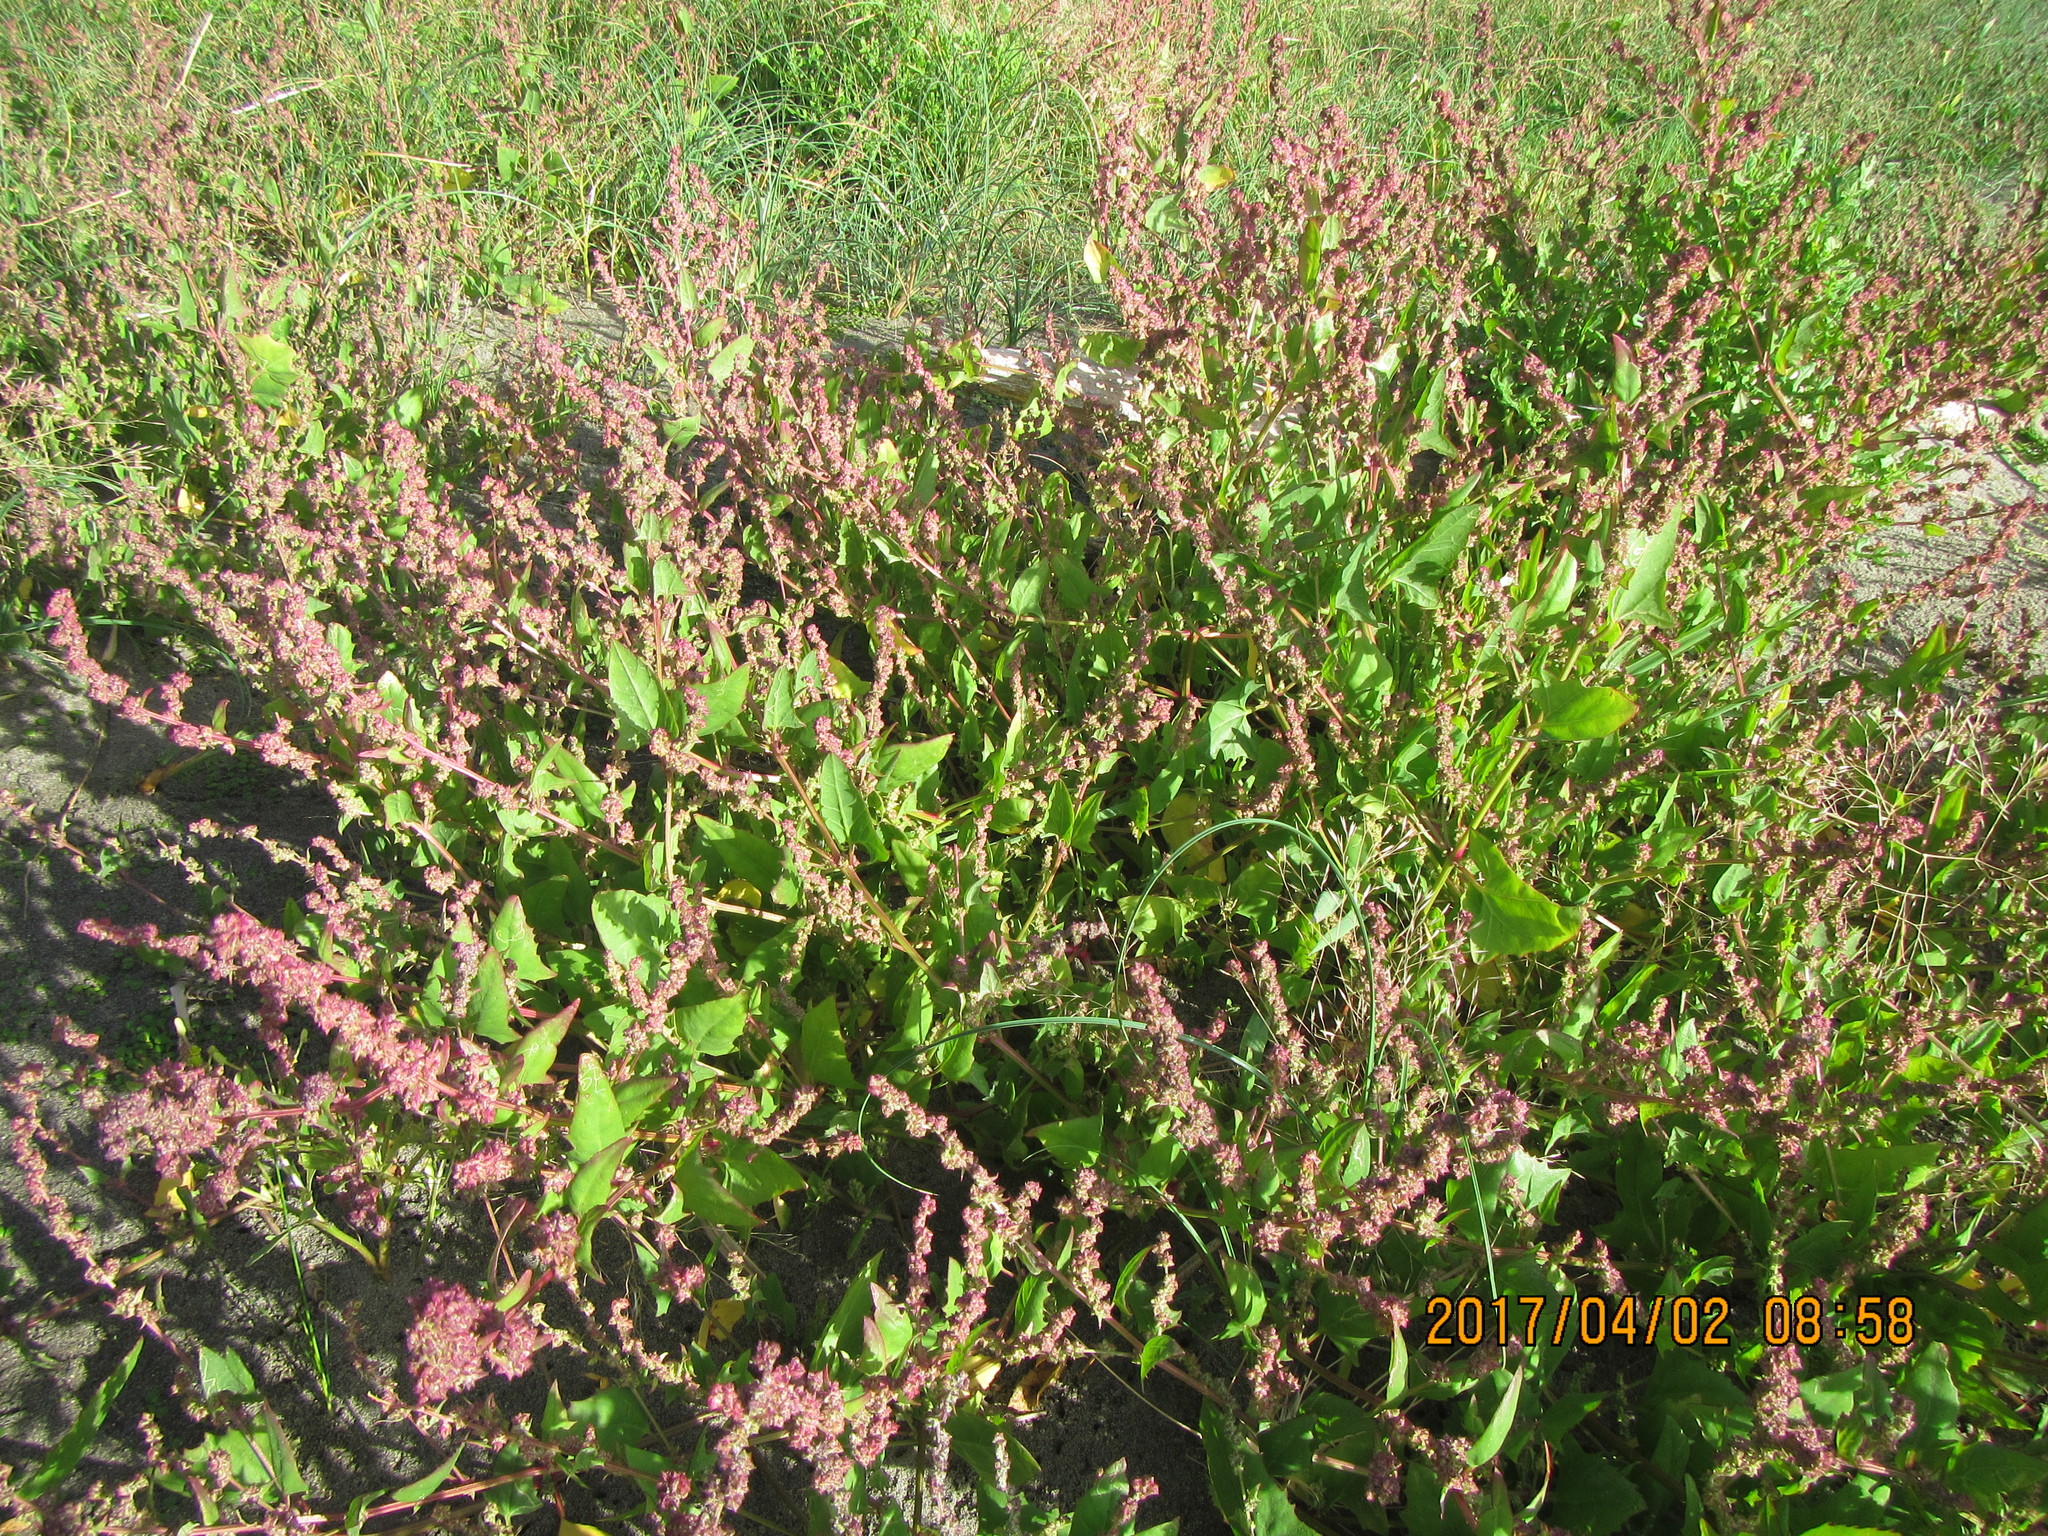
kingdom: Plantae
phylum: Tracheophyta
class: Magnoliopsida
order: Caryophyllales
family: Amaranthaceae
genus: Atriplex
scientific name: Atriplex prostrata
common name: Spear-leaved orache
